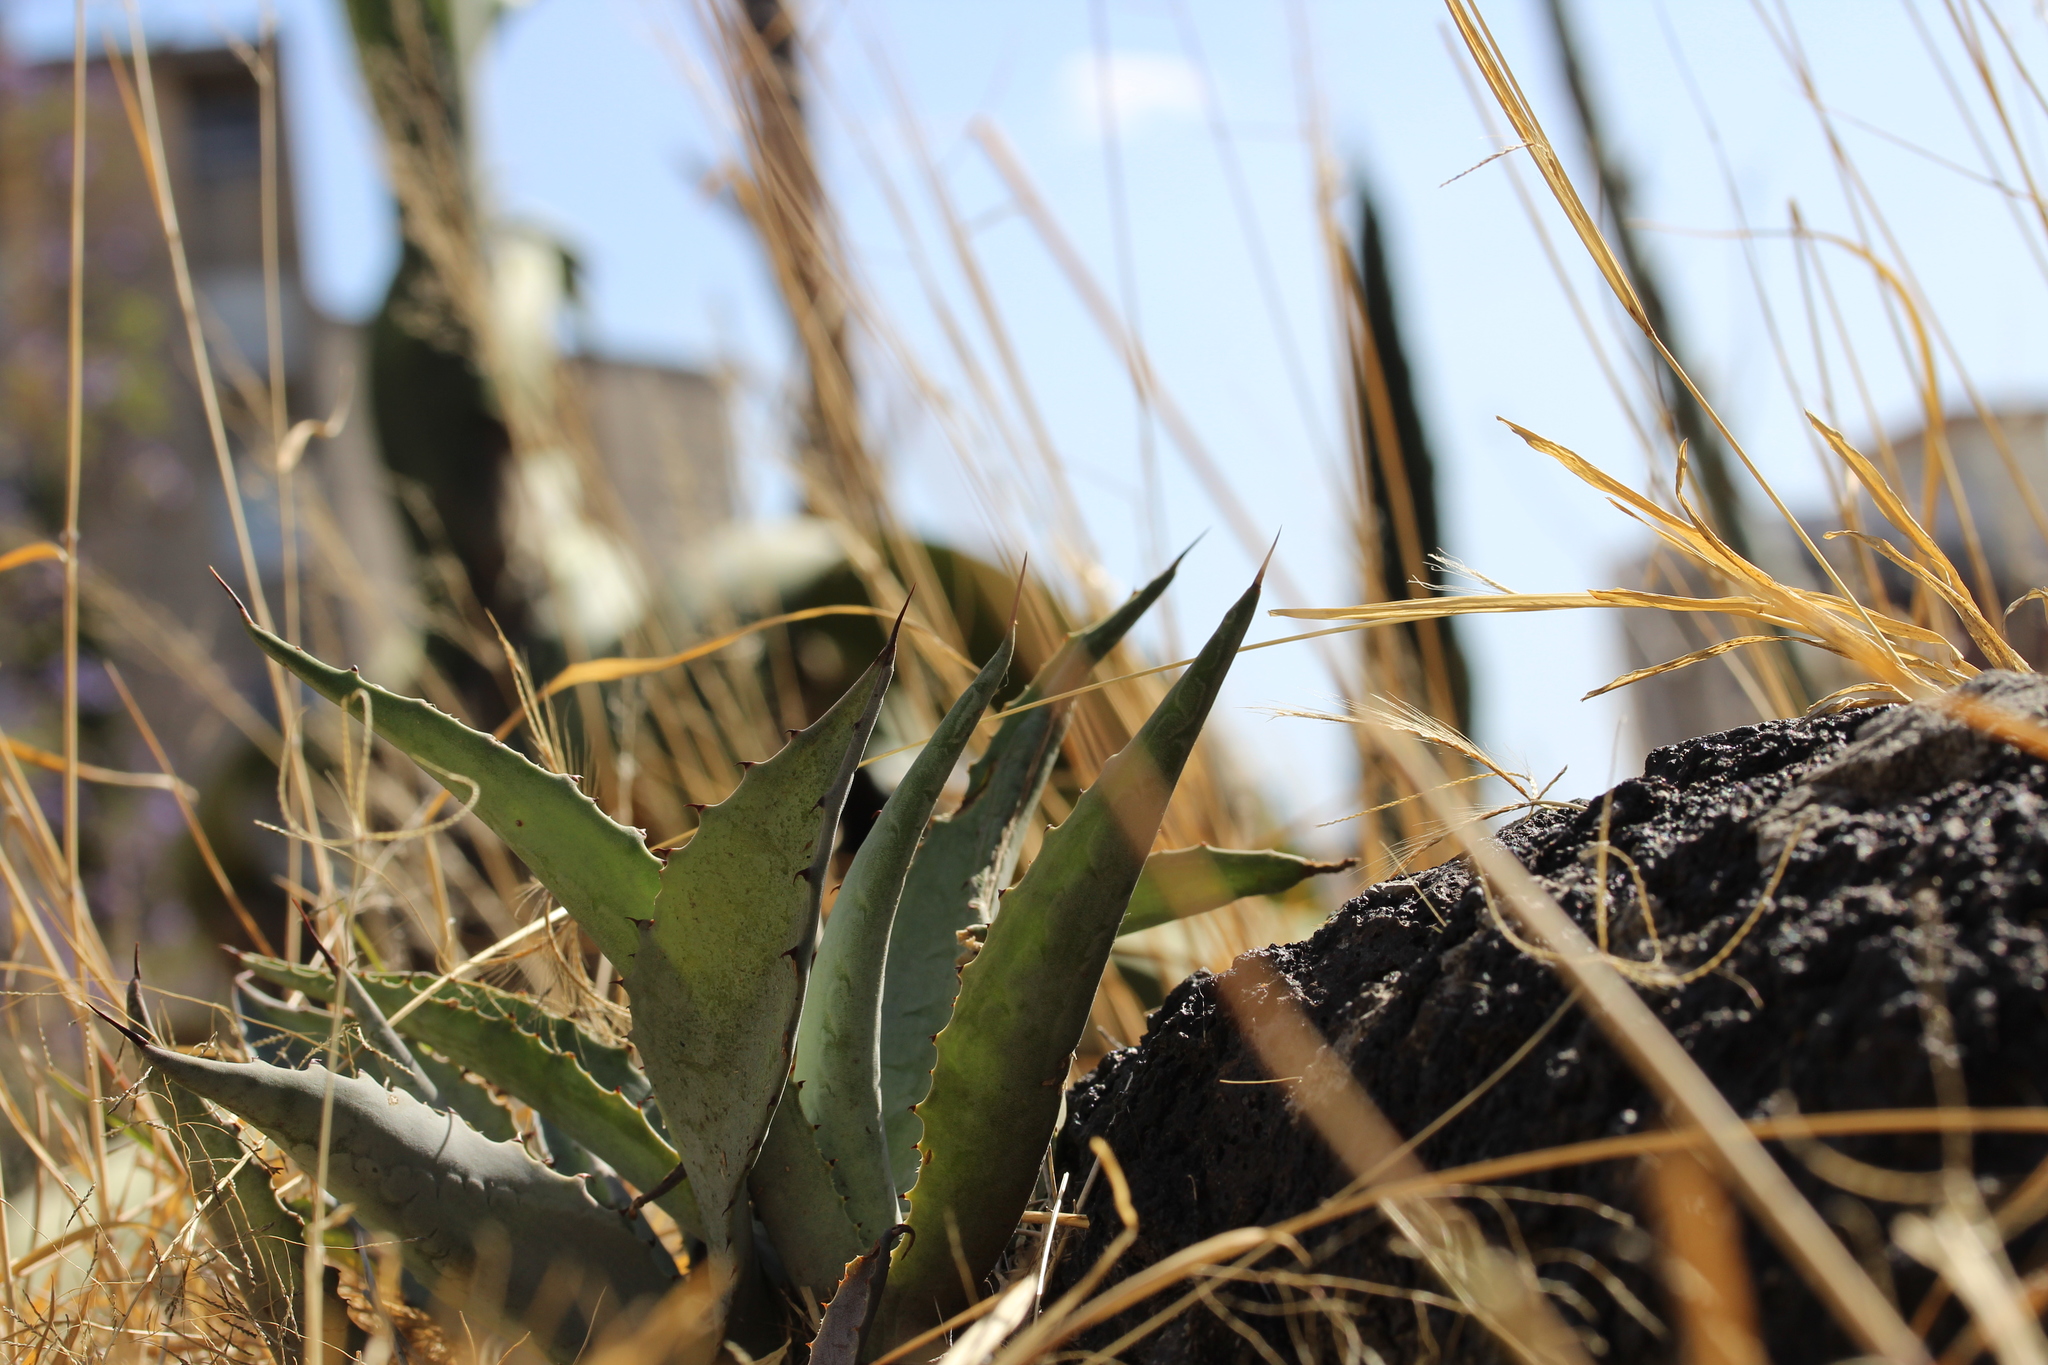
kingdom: Plantae
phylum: Tracheophyta
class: Liliopsida
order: Asparagales
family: Asparagaceae
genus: Agave
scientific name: Agave inaequidens
